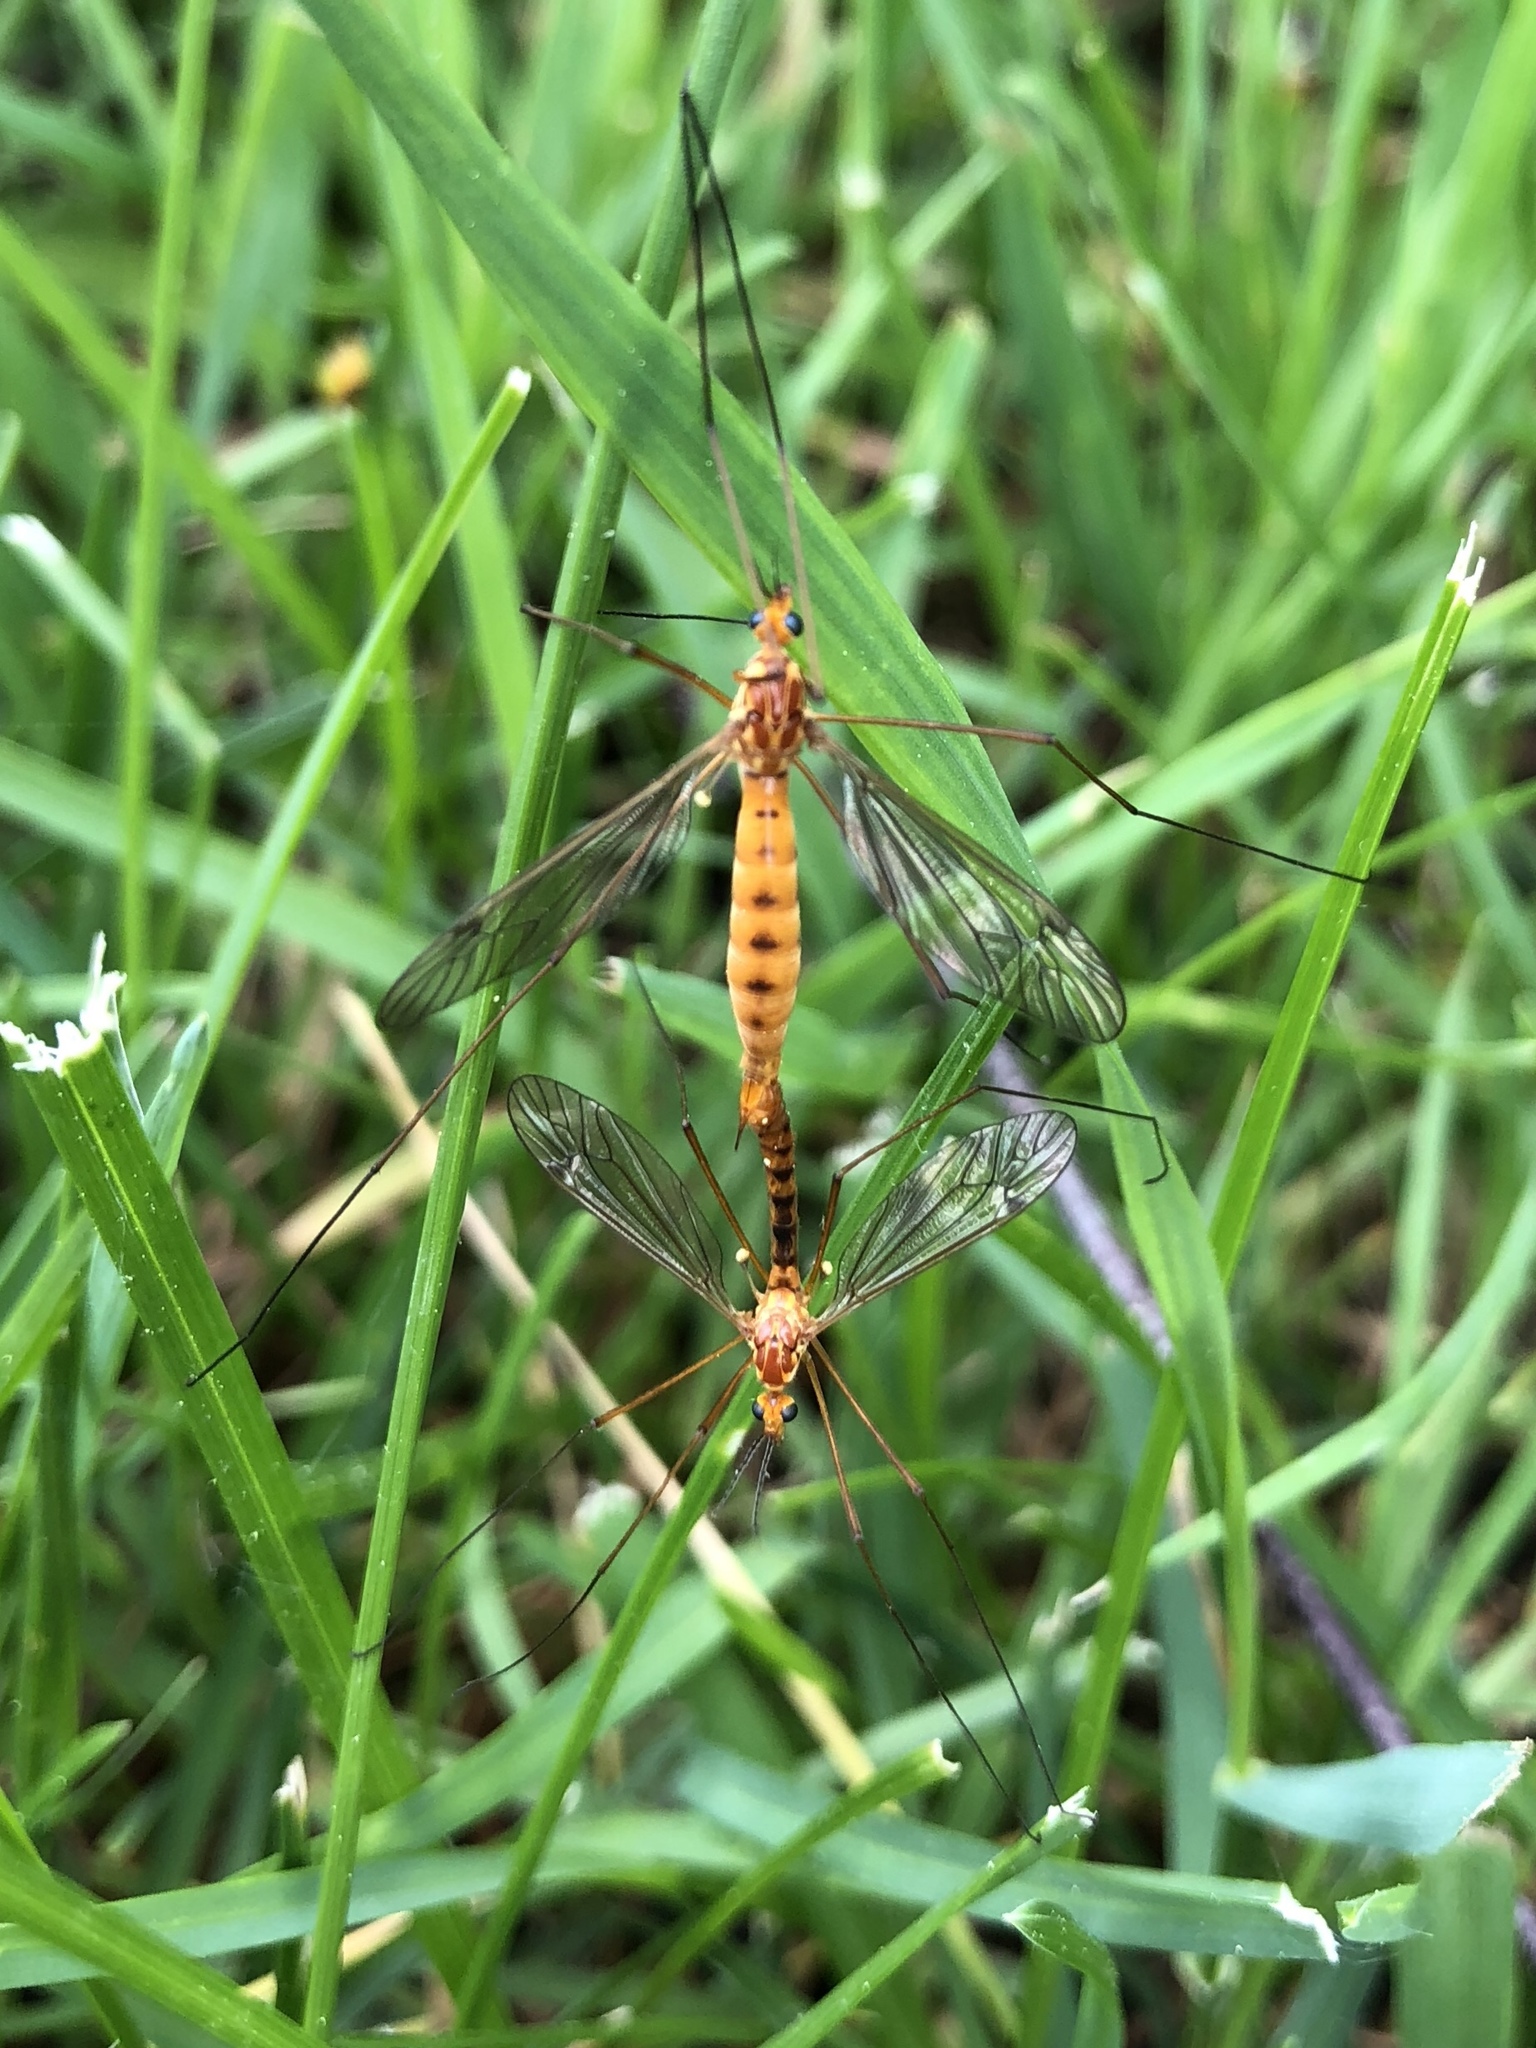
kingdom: Animalia
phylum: Arthropoda
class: Insecta
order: Diptera
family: Tipulidae
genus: Nephrotoma
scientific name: Nephrotoma ferruginea
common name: Ferruginous tiger crane fly
